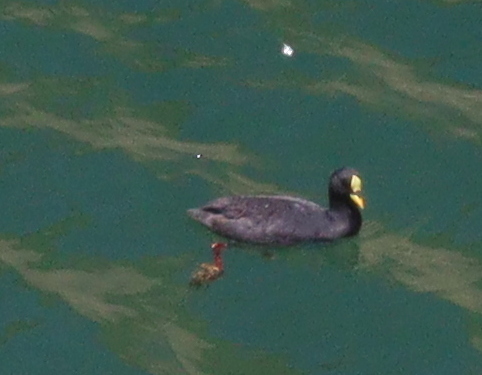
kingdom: Animalia
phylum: Chordata
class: Aves
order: Gruiformes
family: Rallidae
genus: Fulica
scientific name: Fulica armillata
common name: Red-gartered coot
